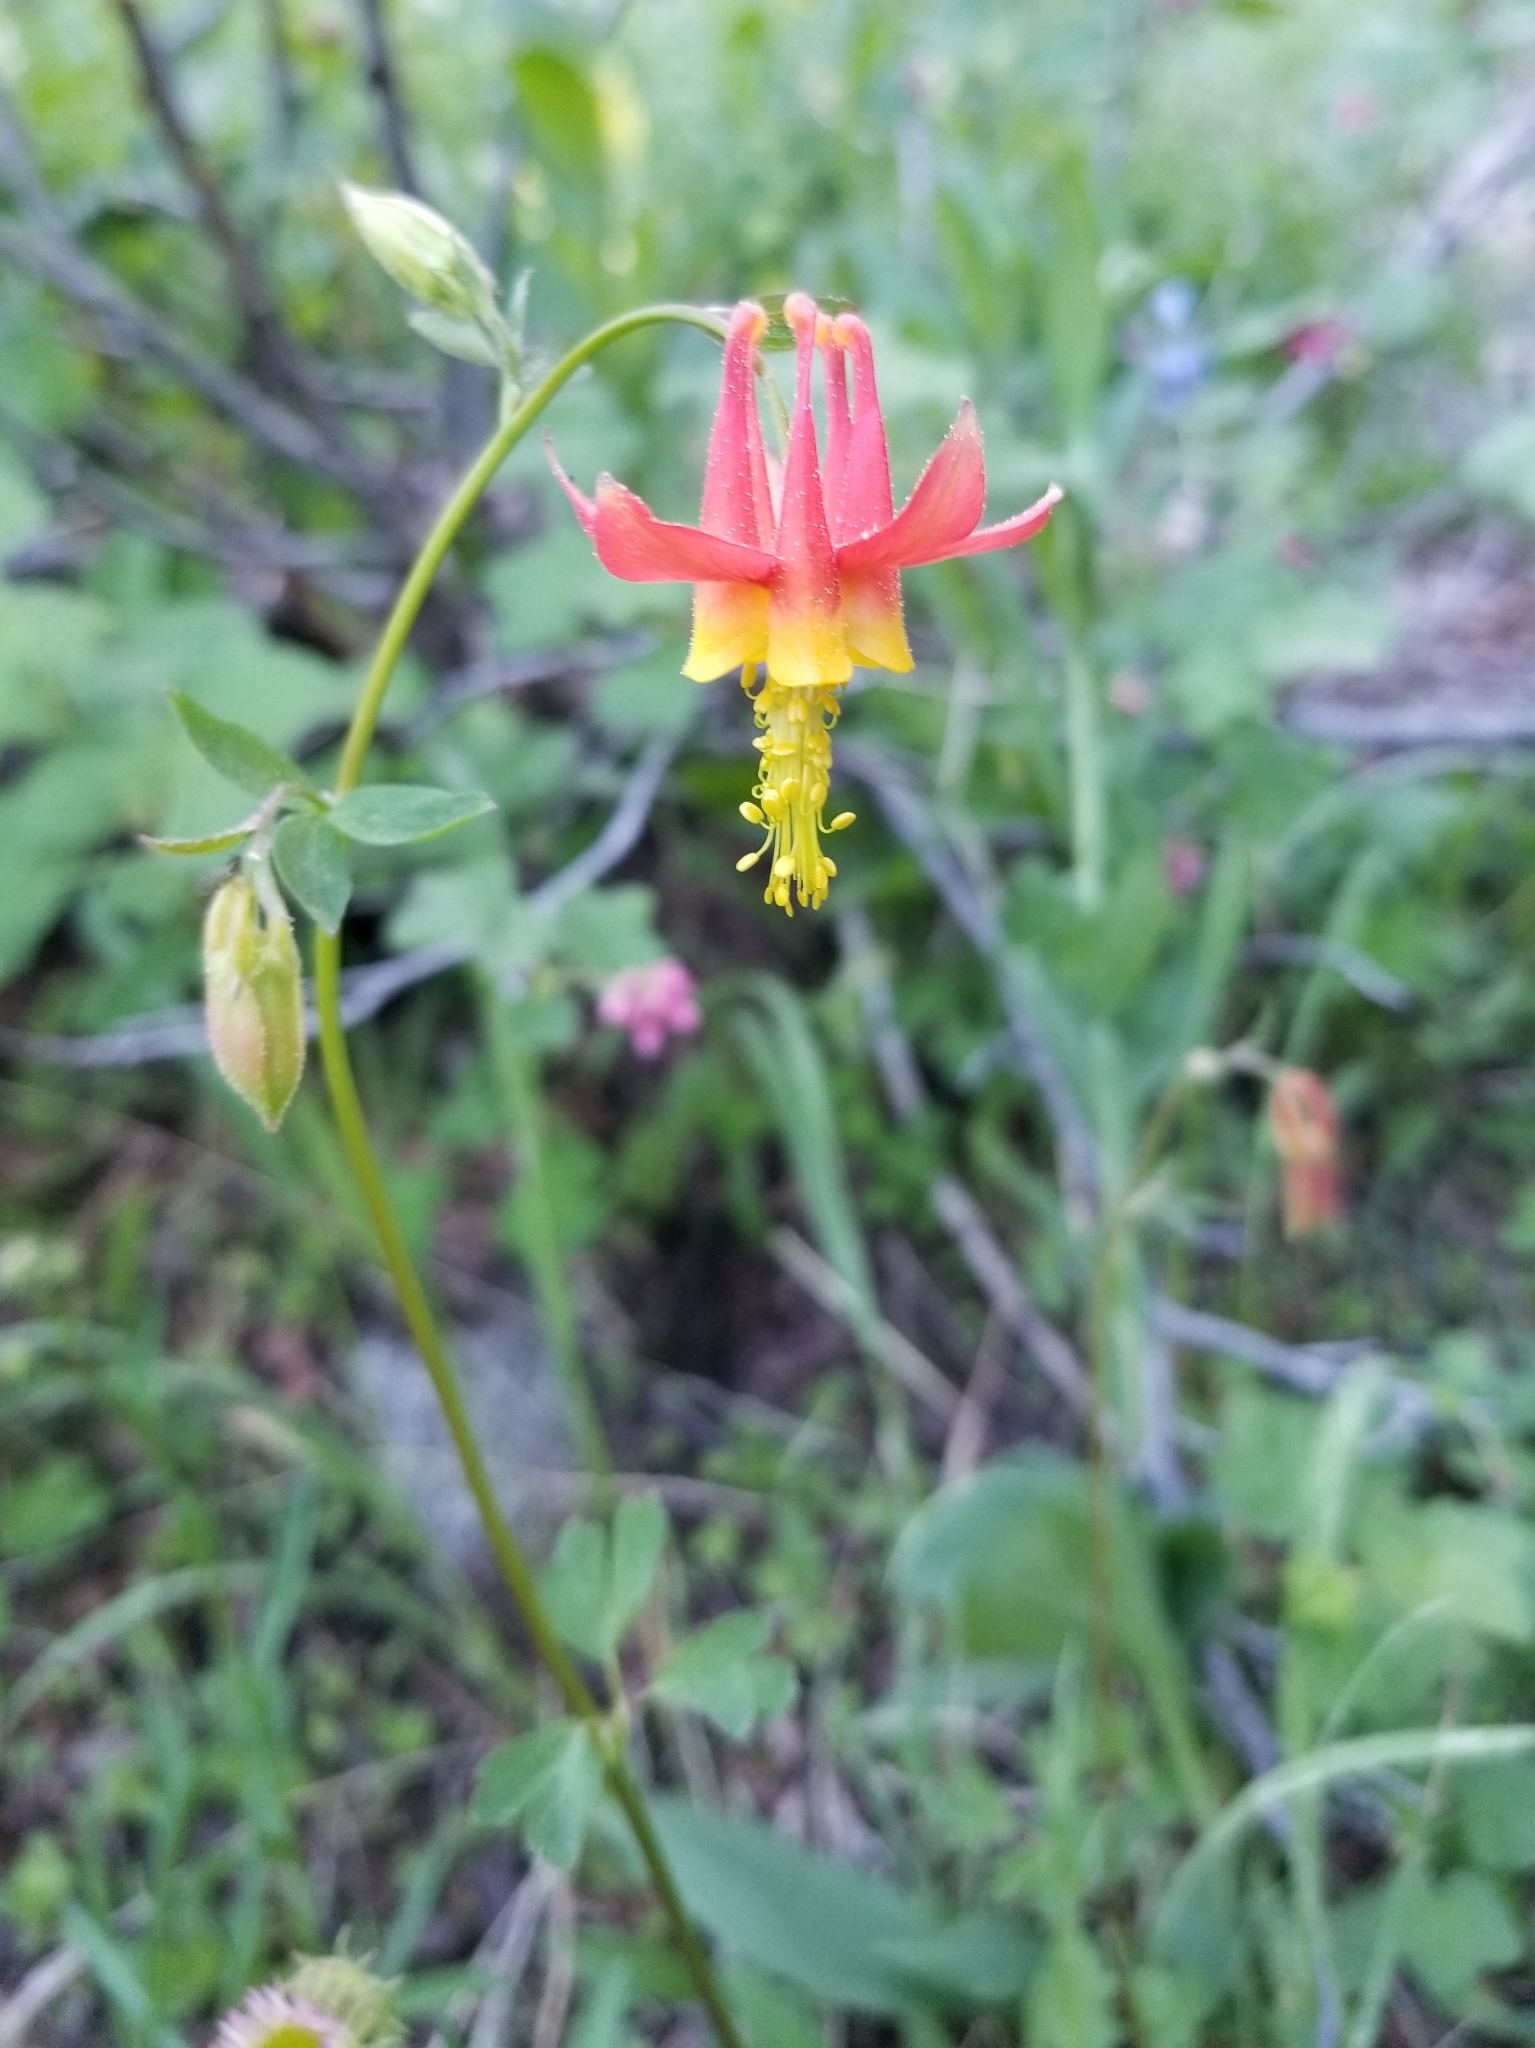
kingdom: Plantae
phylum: Tracheophyta
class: Magnoliopsida
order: Ranunculales
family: Ranunculaceae
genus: Aquilegia
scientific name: Aquilegia formosa
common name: Sitka columbine
